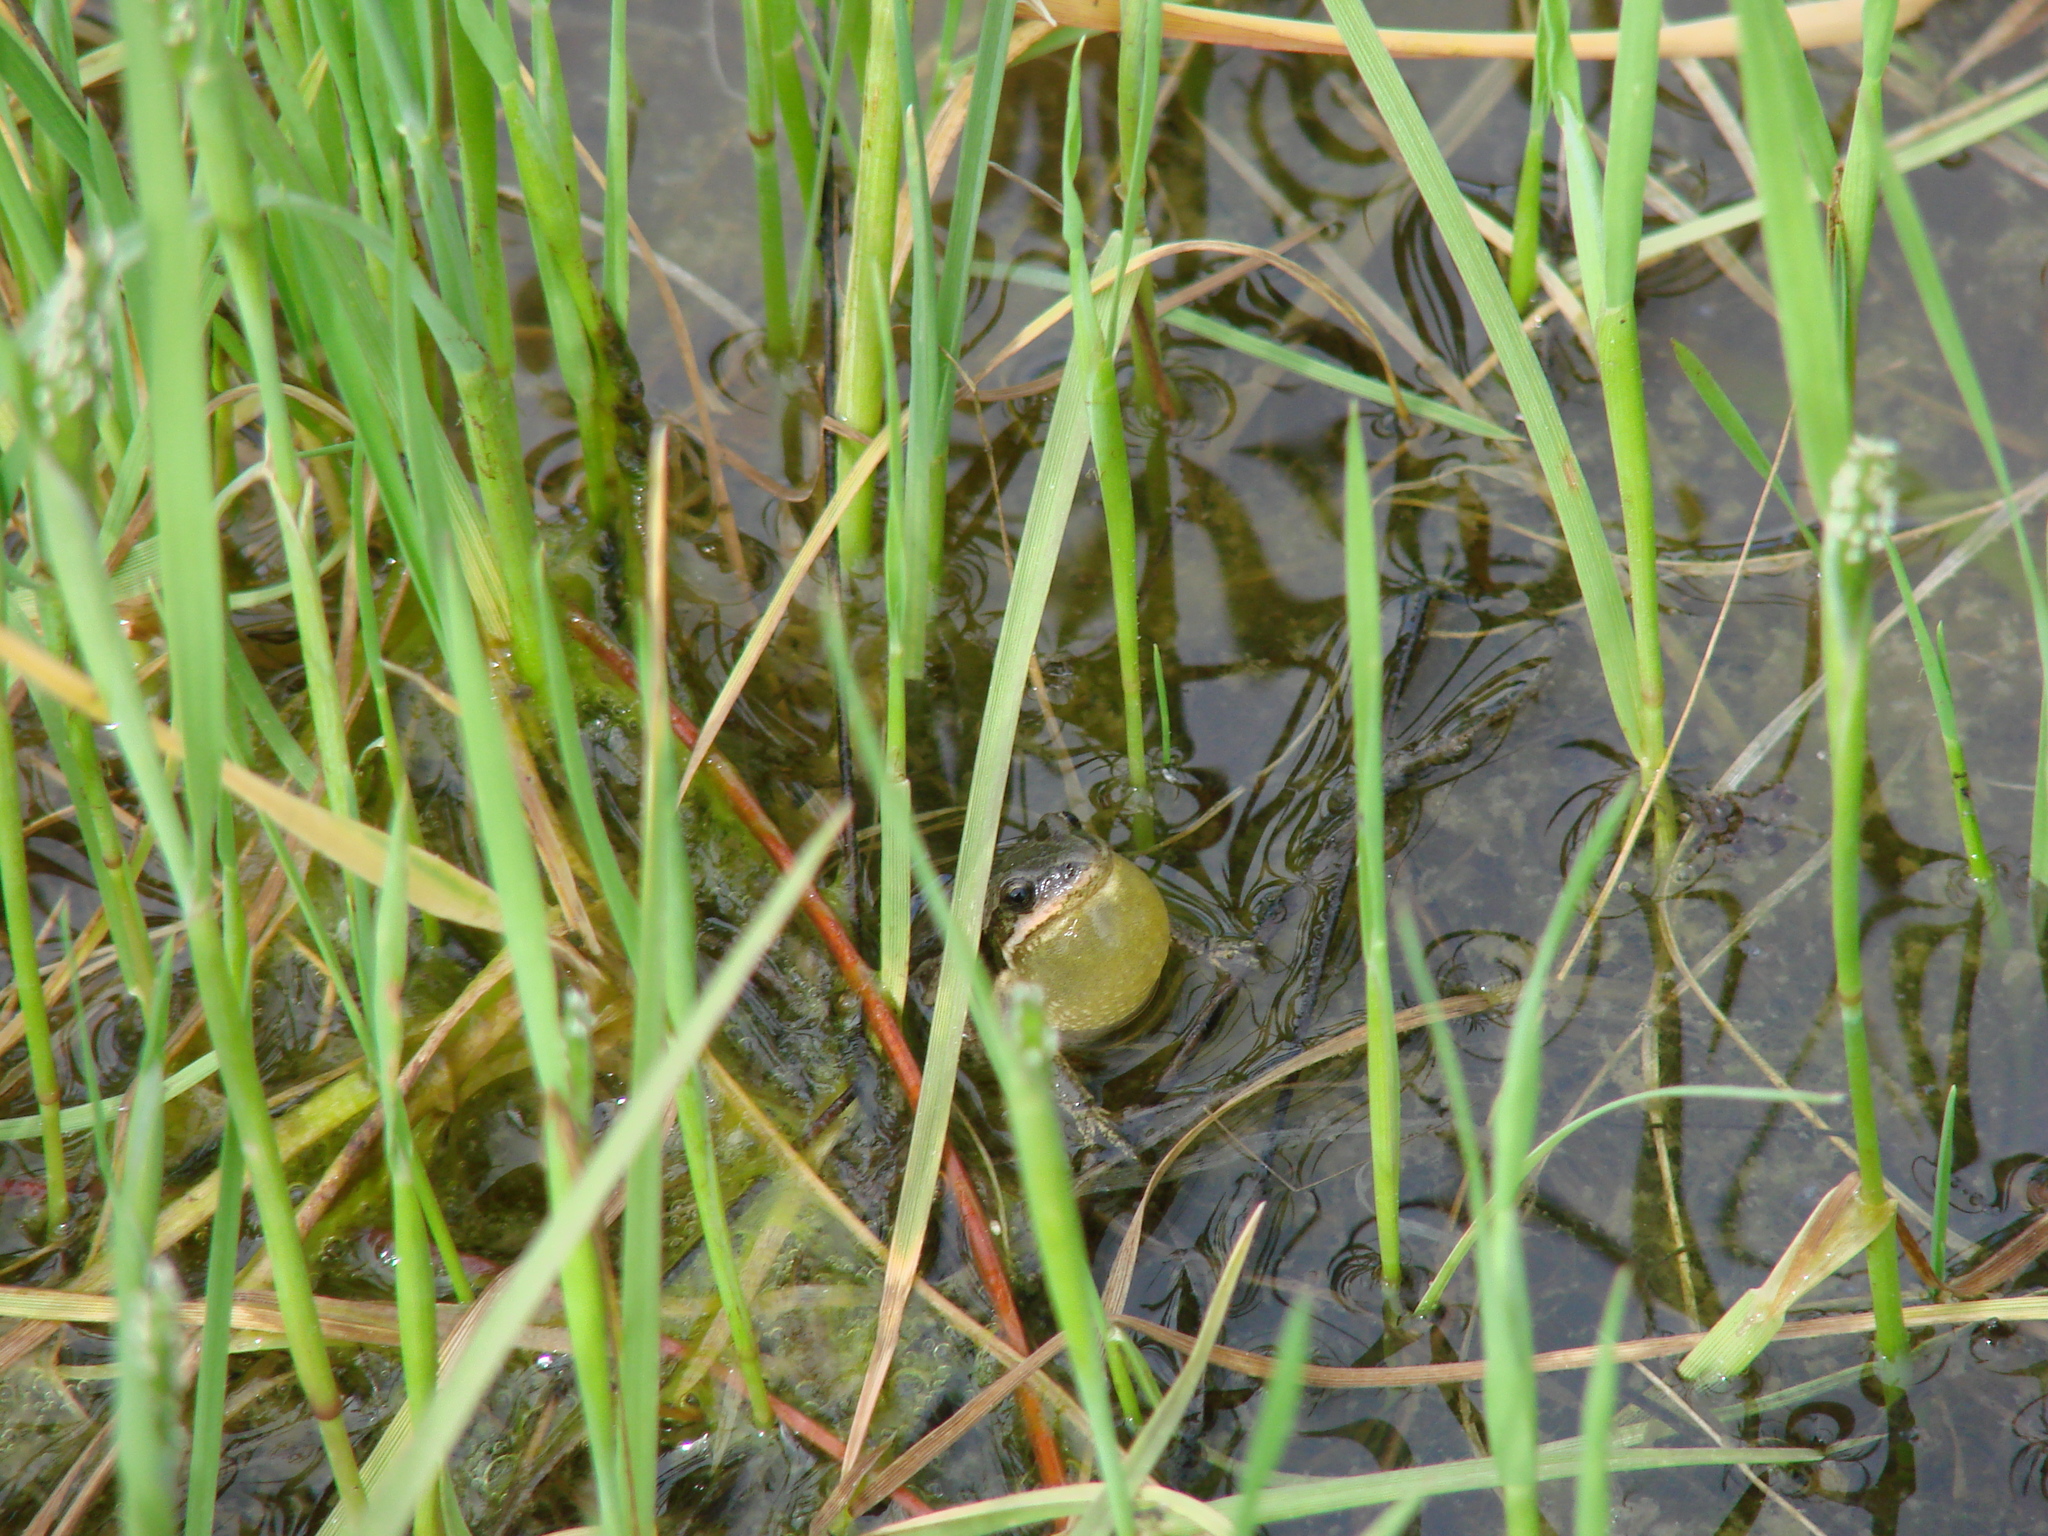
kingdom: Animalia
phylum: Chordata
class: Amphibia
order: Anura
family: Hylidae
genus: Pseudacris
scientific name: Pseudacris maculata
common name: Boreal chorus frog
